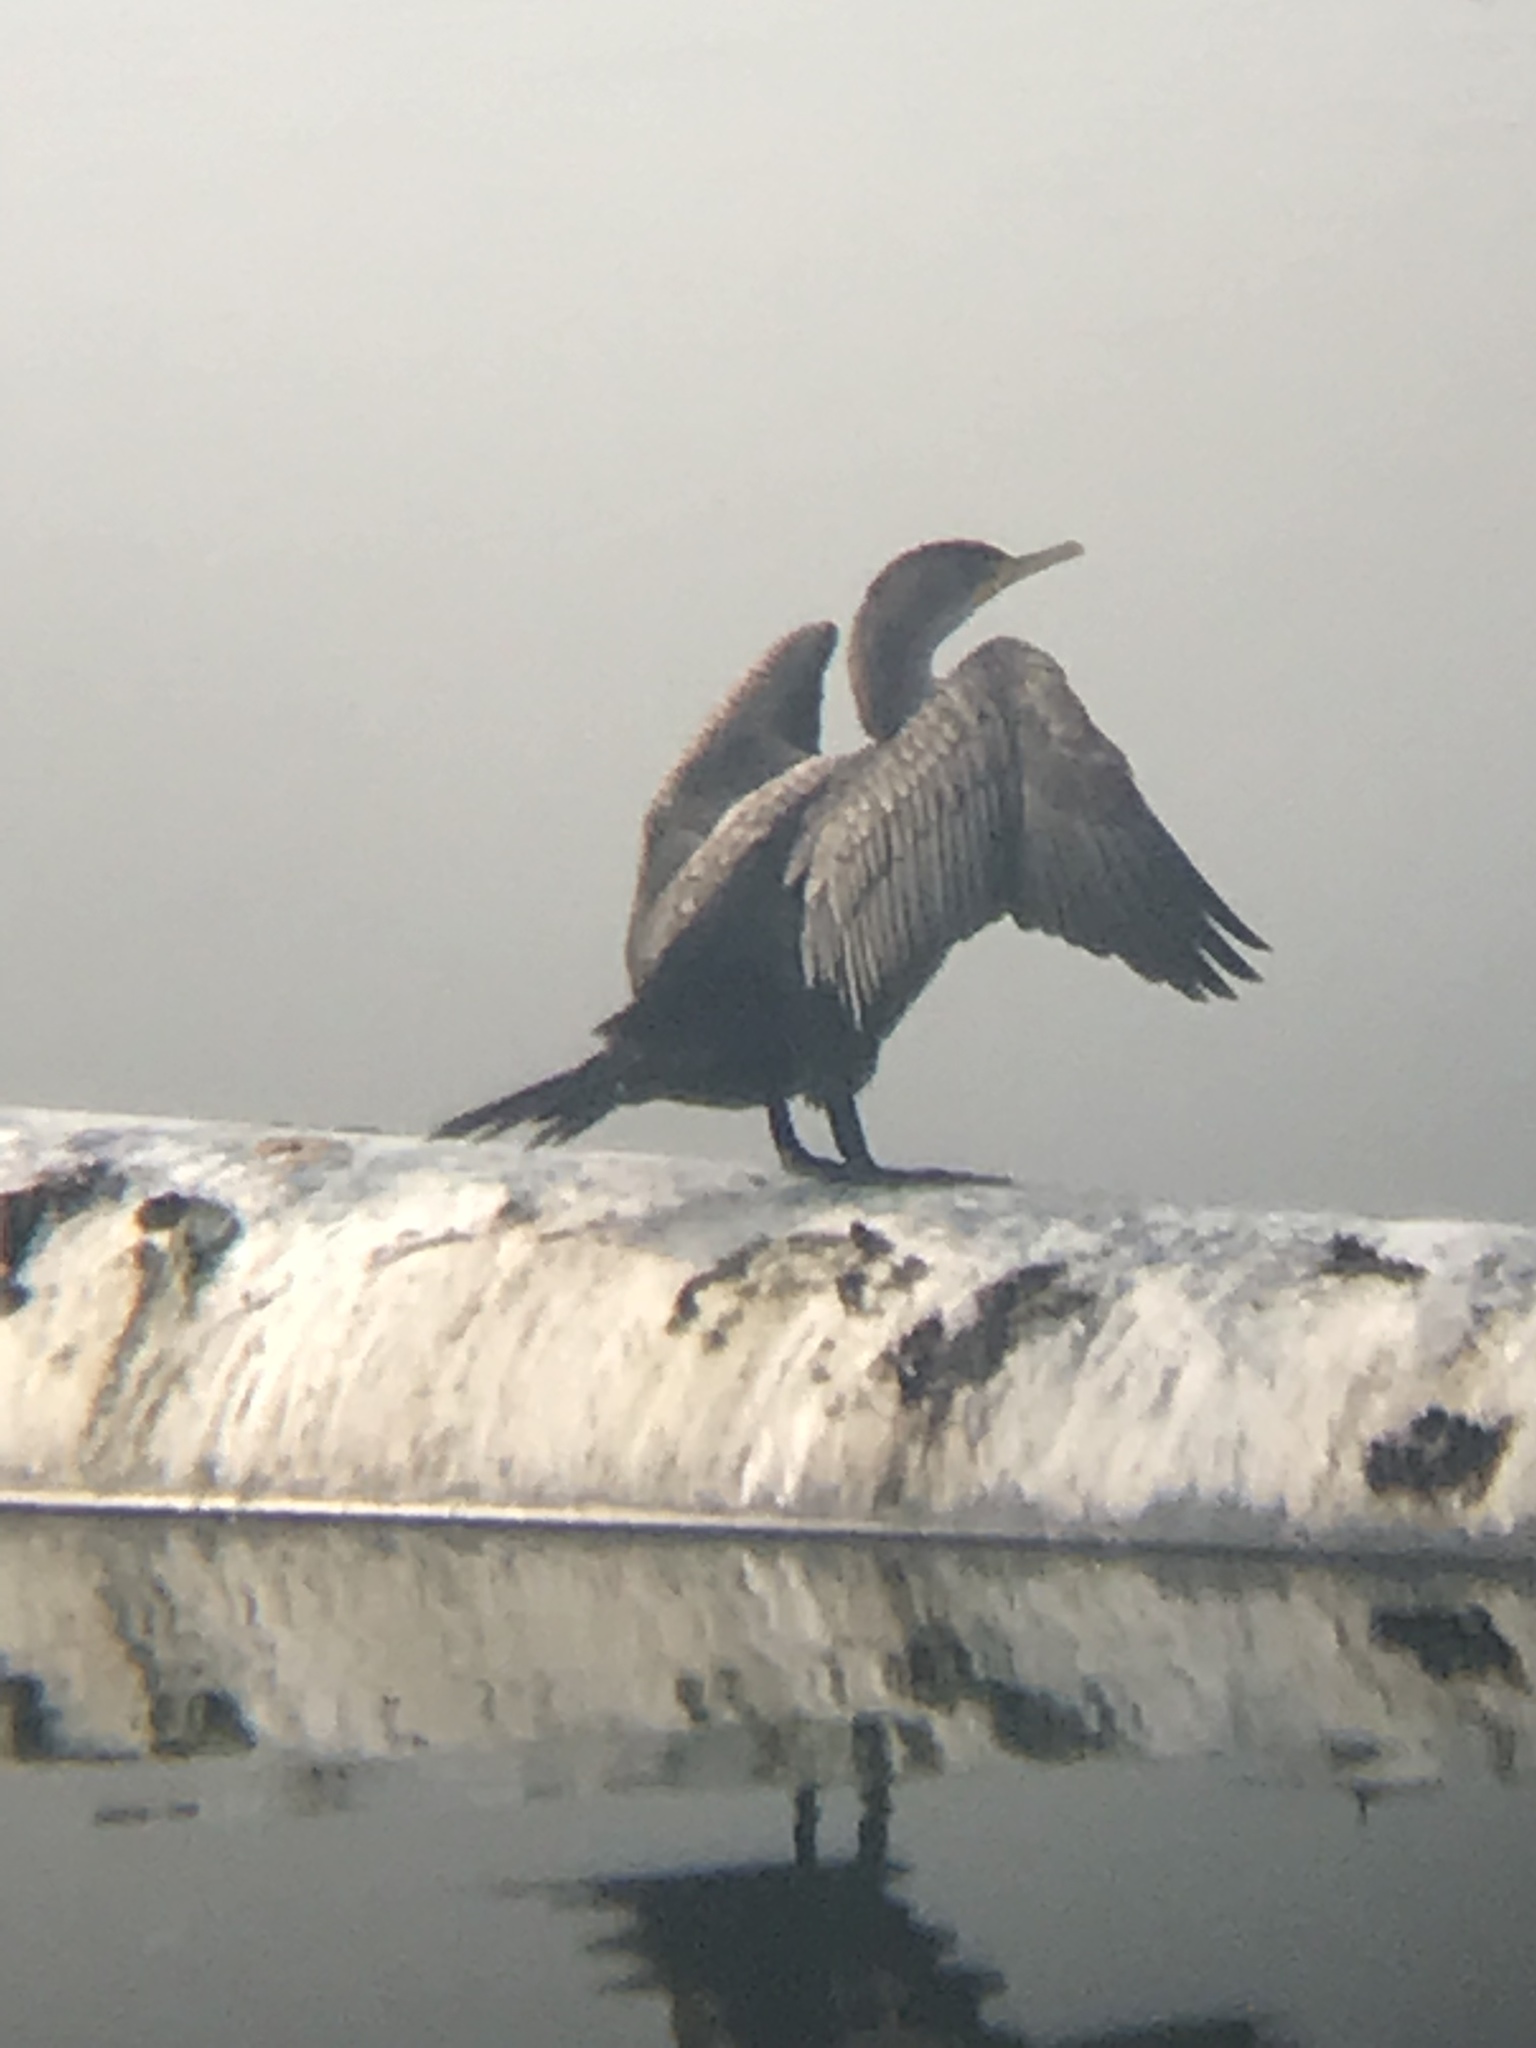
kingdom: Animalia
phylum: Chordata
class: Aves
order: Suliformes
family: Phalacrocoracidae
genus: Phalacrocorax
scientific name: Phalacrocorax auritus
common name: Double-crested cormorant
